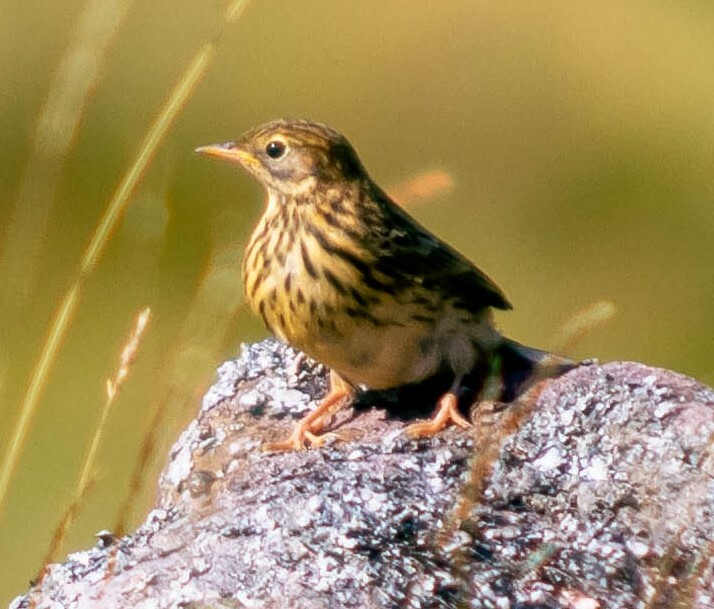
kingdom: Animalia
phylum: Chordata
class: Aves
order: Passeriformes
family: Motacillidae
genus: Anthus
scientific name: Anthus pratensis
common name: Meadow pipit
